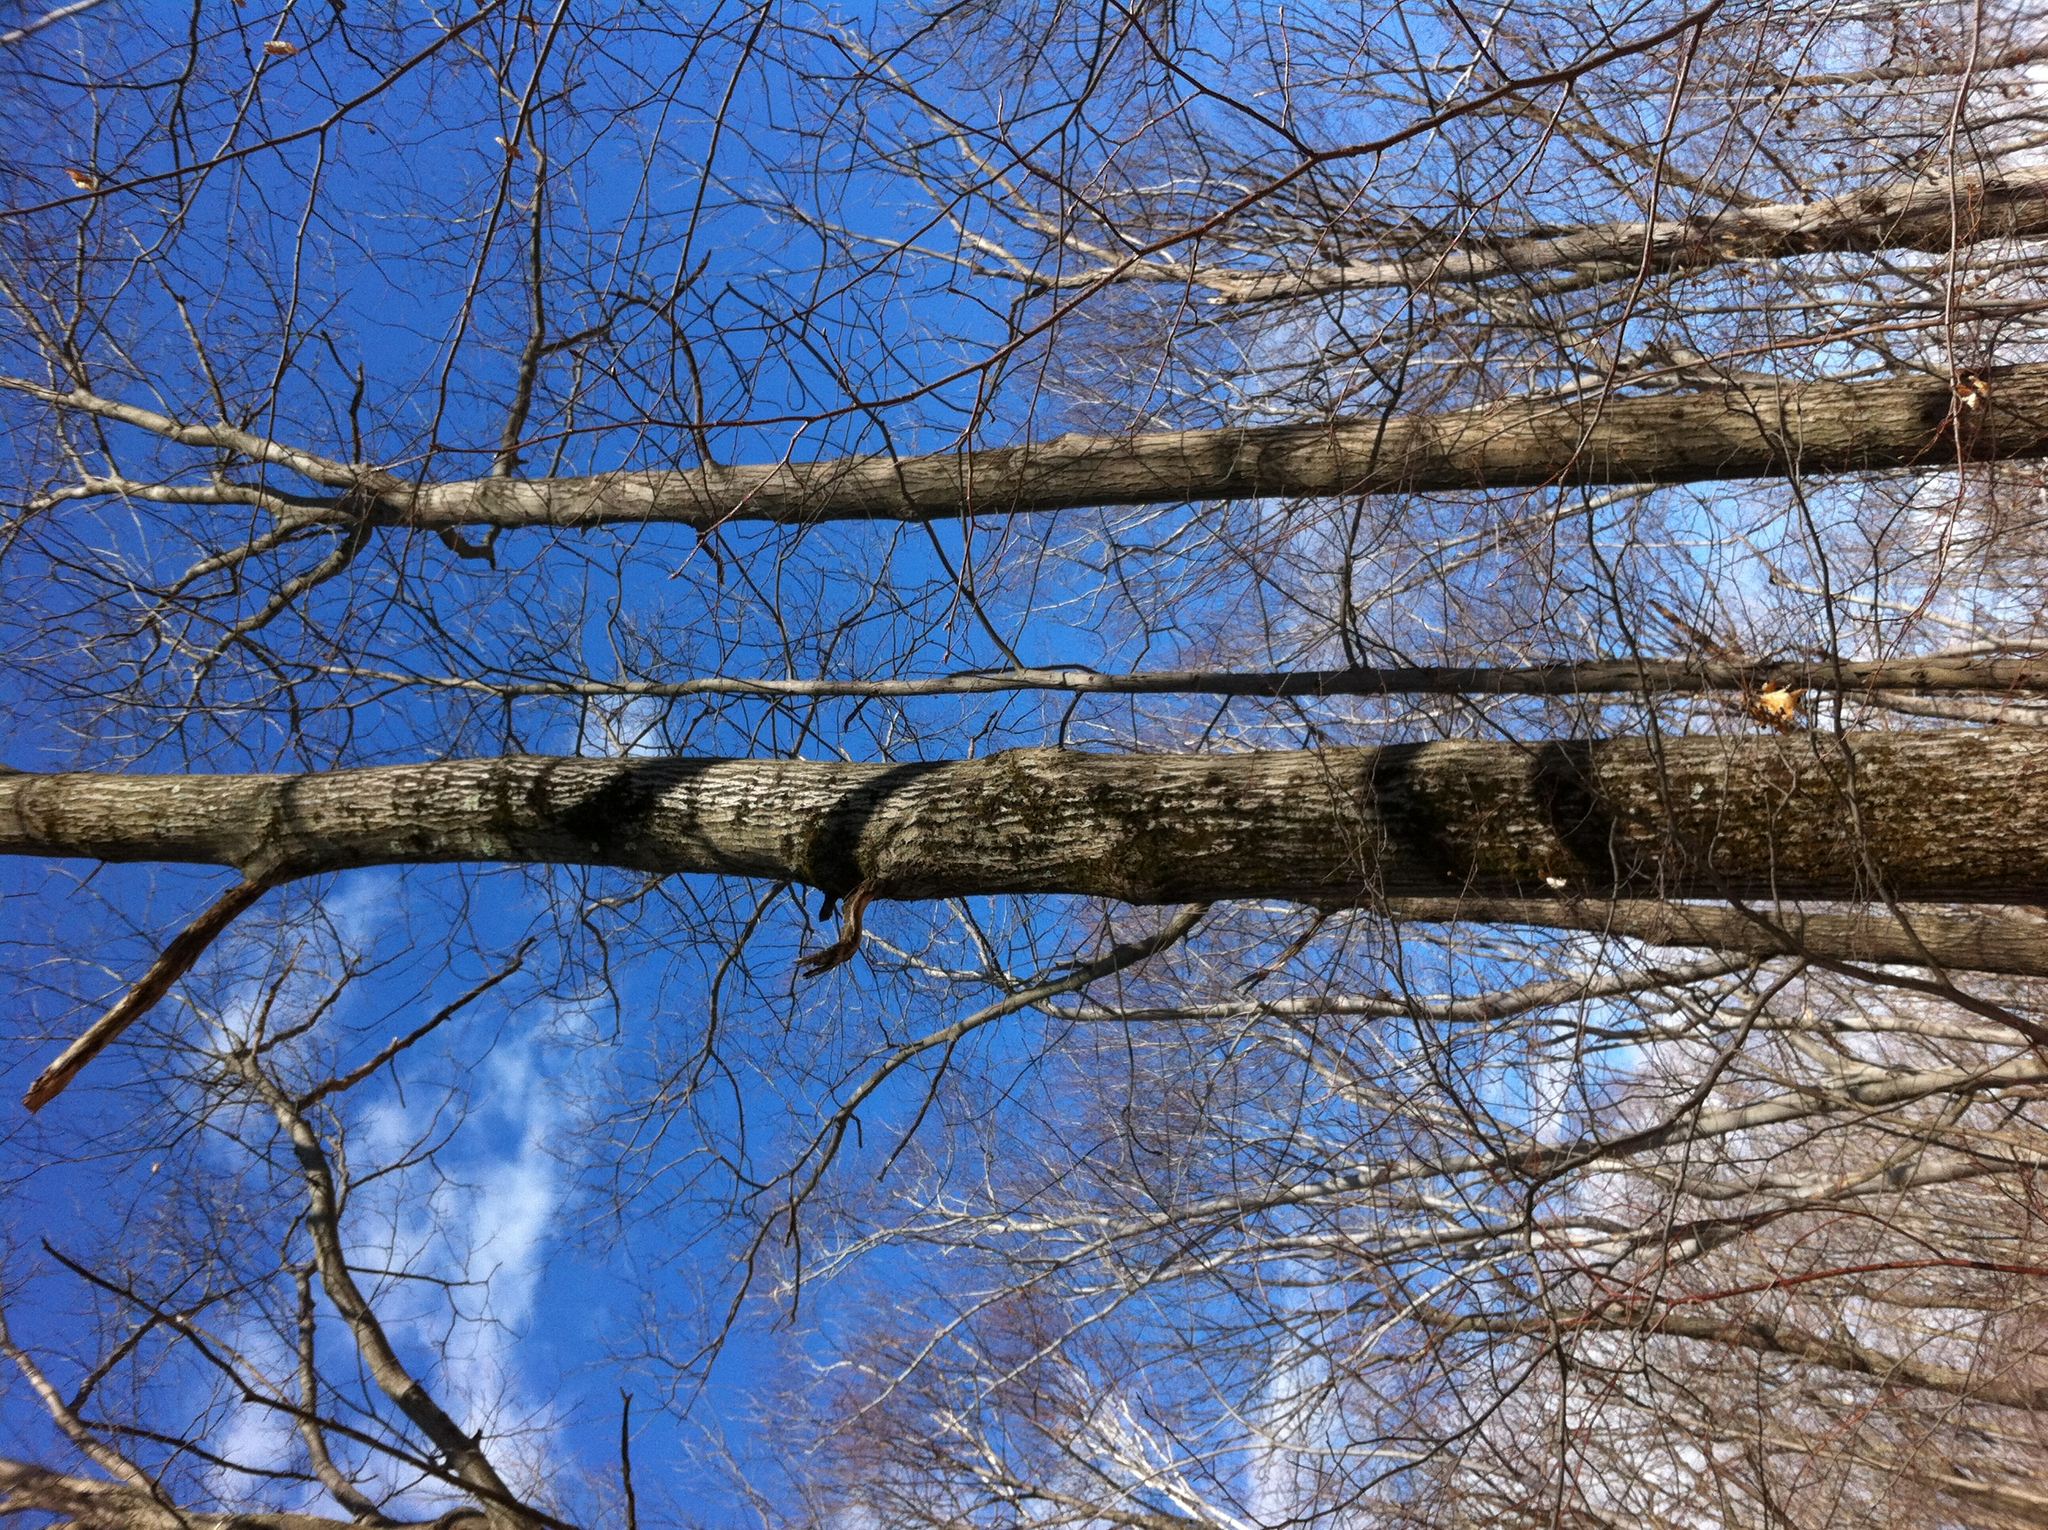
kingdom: Plantae
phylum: Tracheophyta
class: Magnoliopsida
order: Fagales
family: Fagaceae
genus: Quercus
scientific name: Quercus rubra
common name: Red oak
